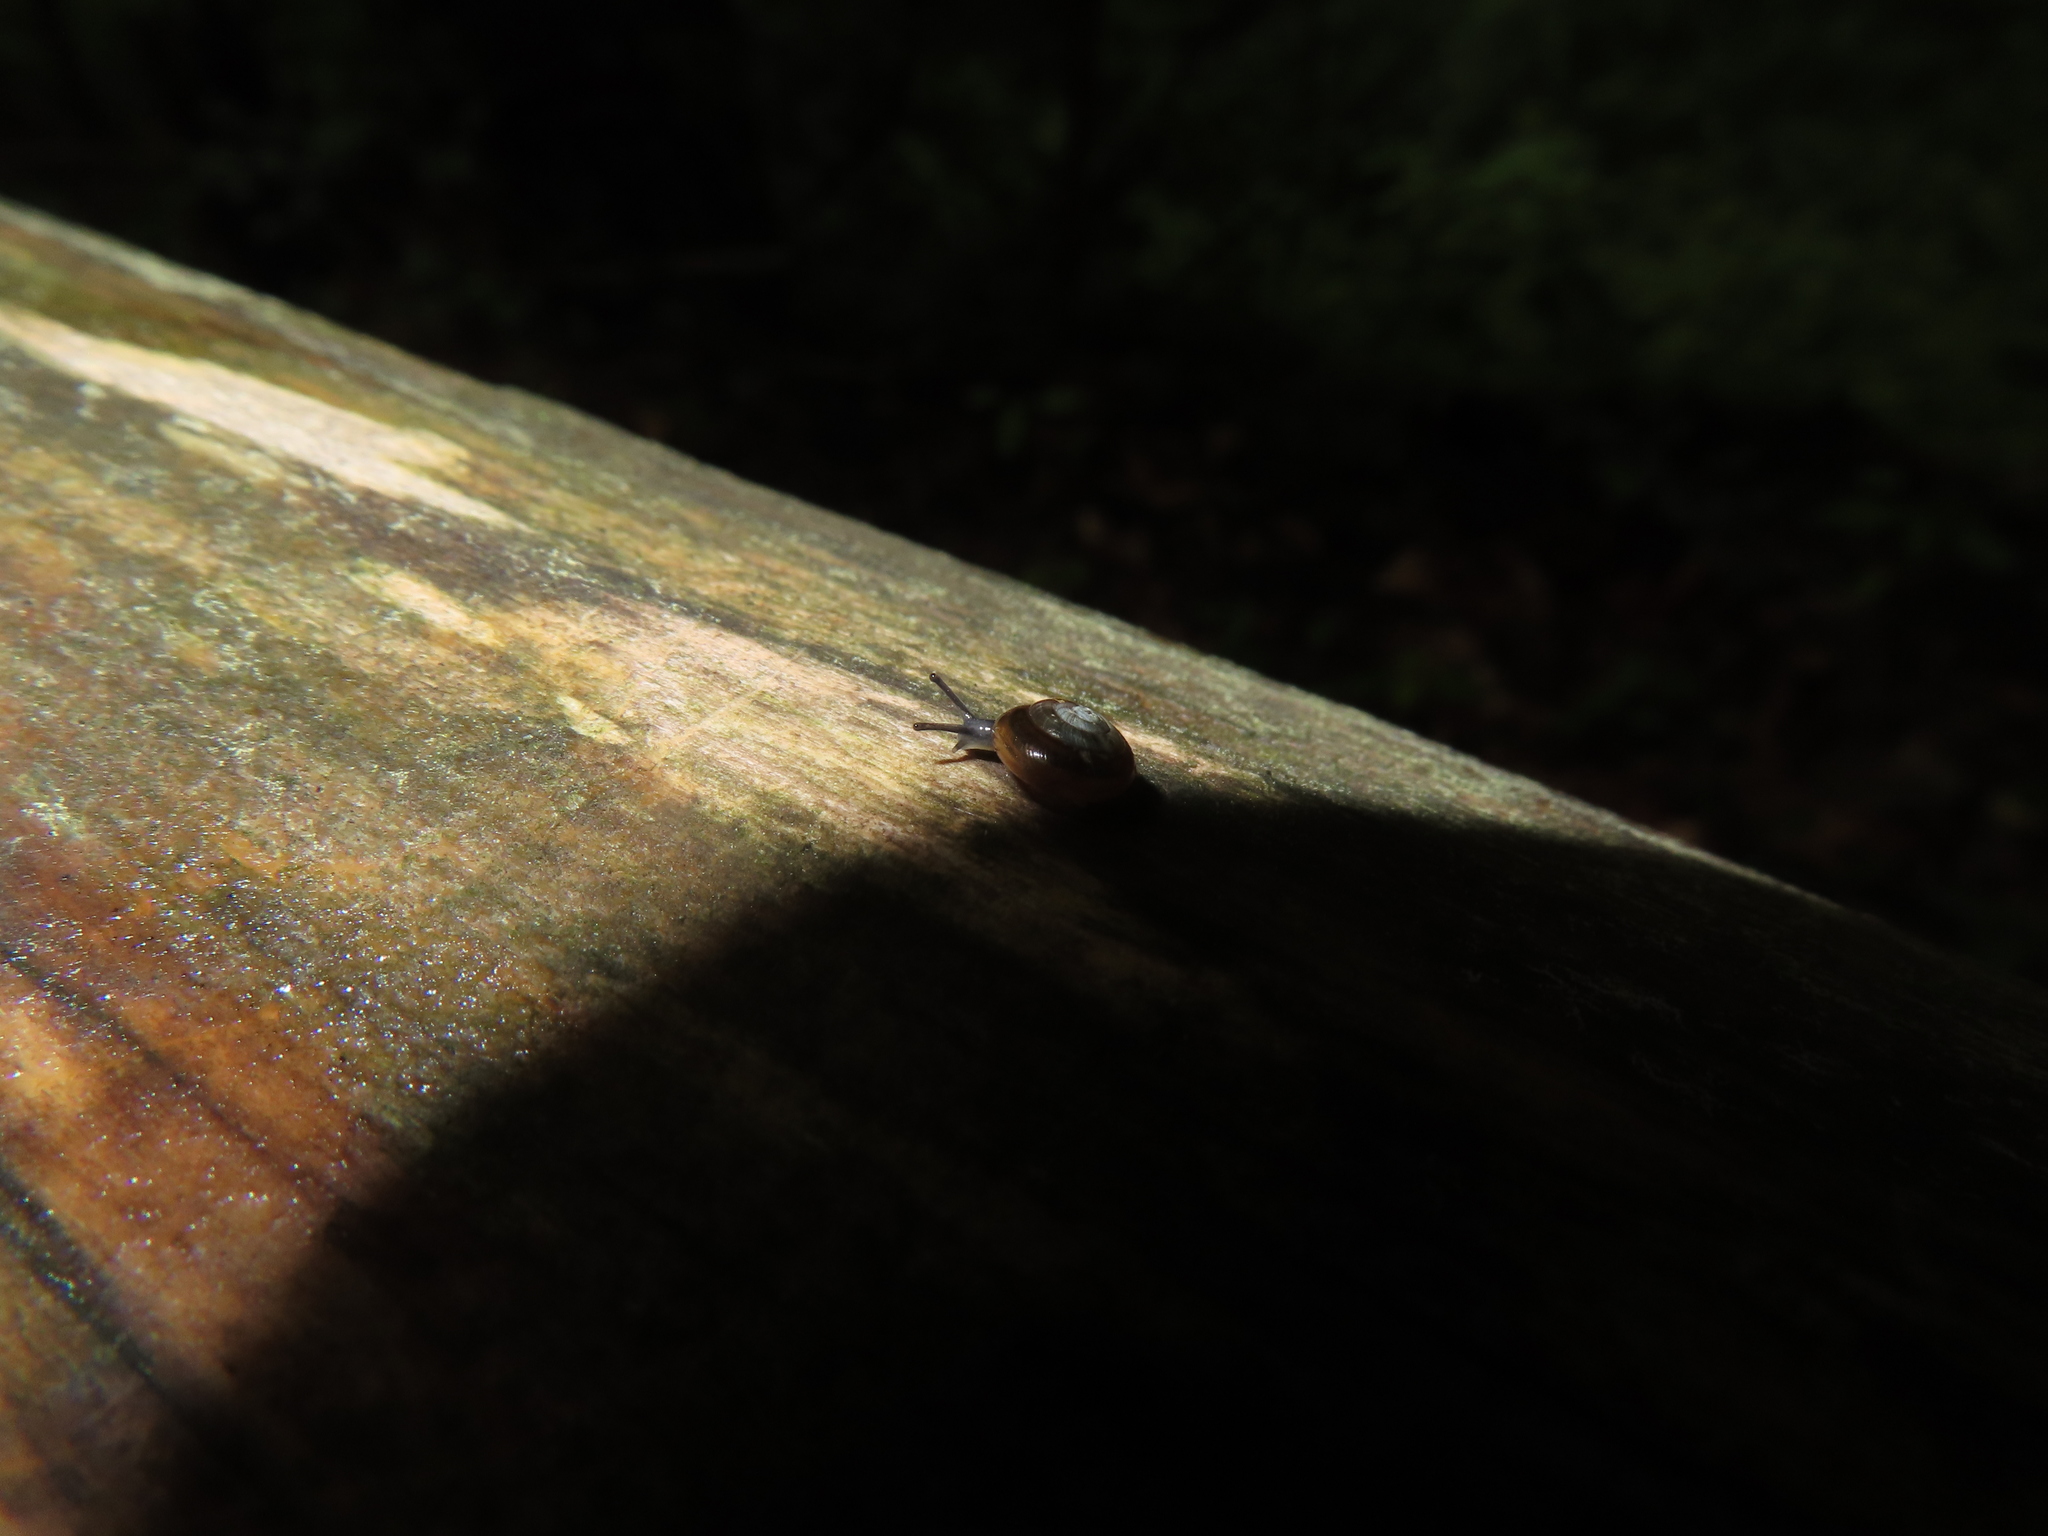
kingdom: Animalia
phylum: Mollusca
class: Gastropoda
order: Stylommatophora
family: Gastrodontidae
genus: Zonitoides
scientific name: Zonitoides arboreus
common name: Quick gloss
